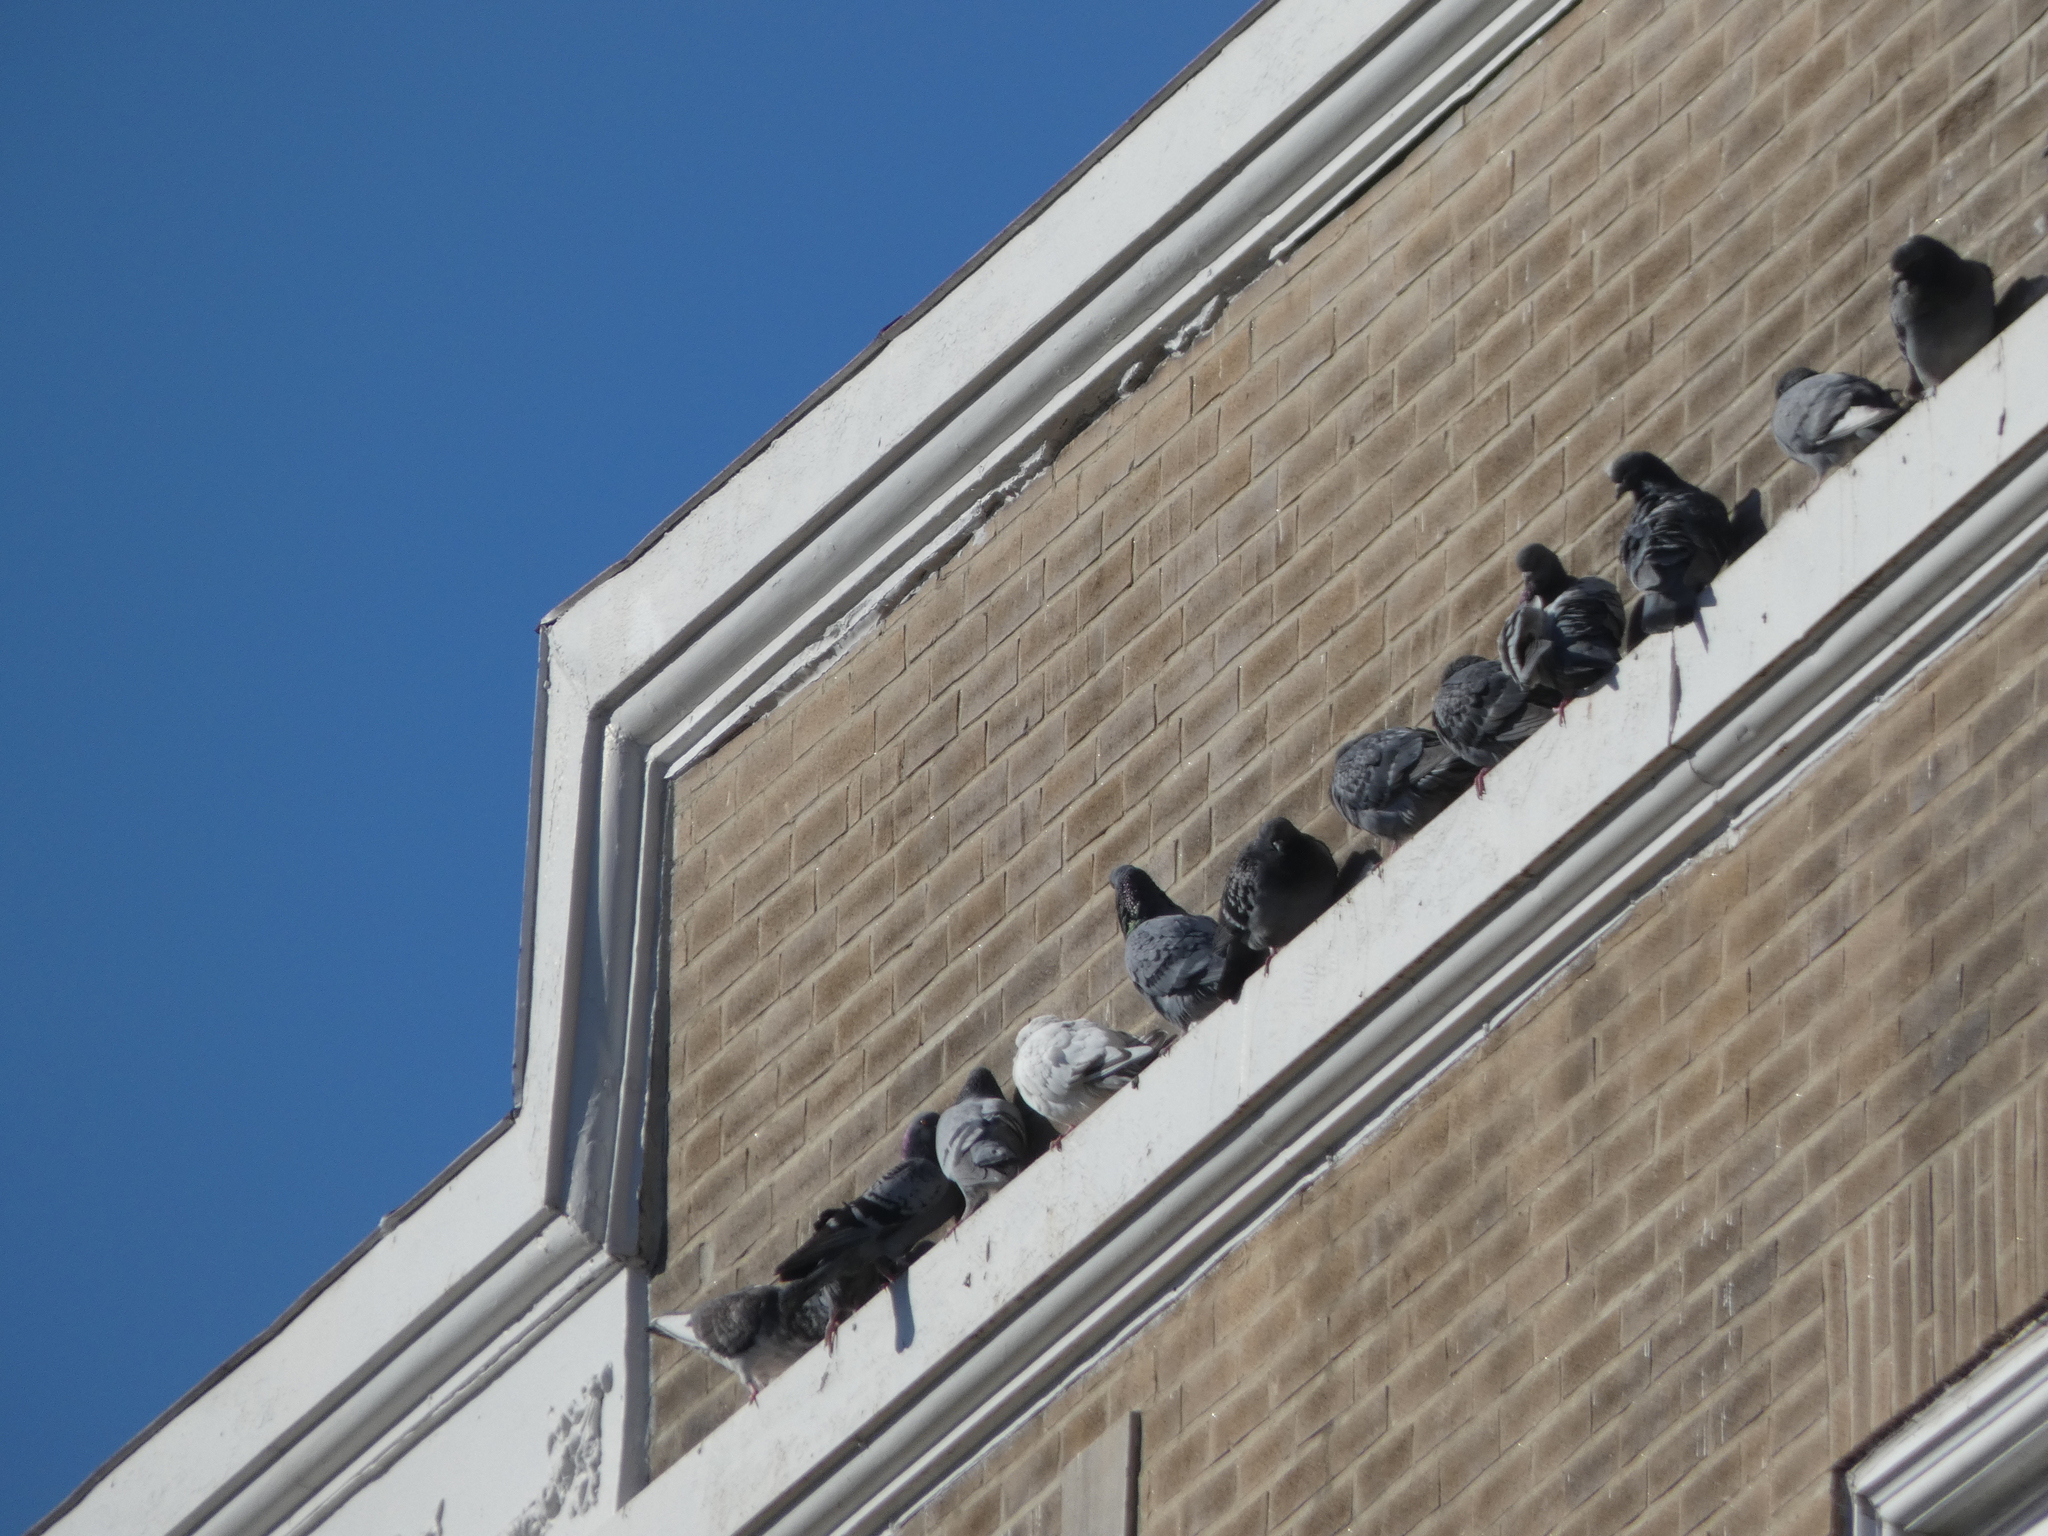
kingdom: Animalia
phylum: Chordata
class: Aves
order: Columbiformes
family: Columbidae
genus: Columba
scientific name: Columba livia
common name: Rock pigeon
